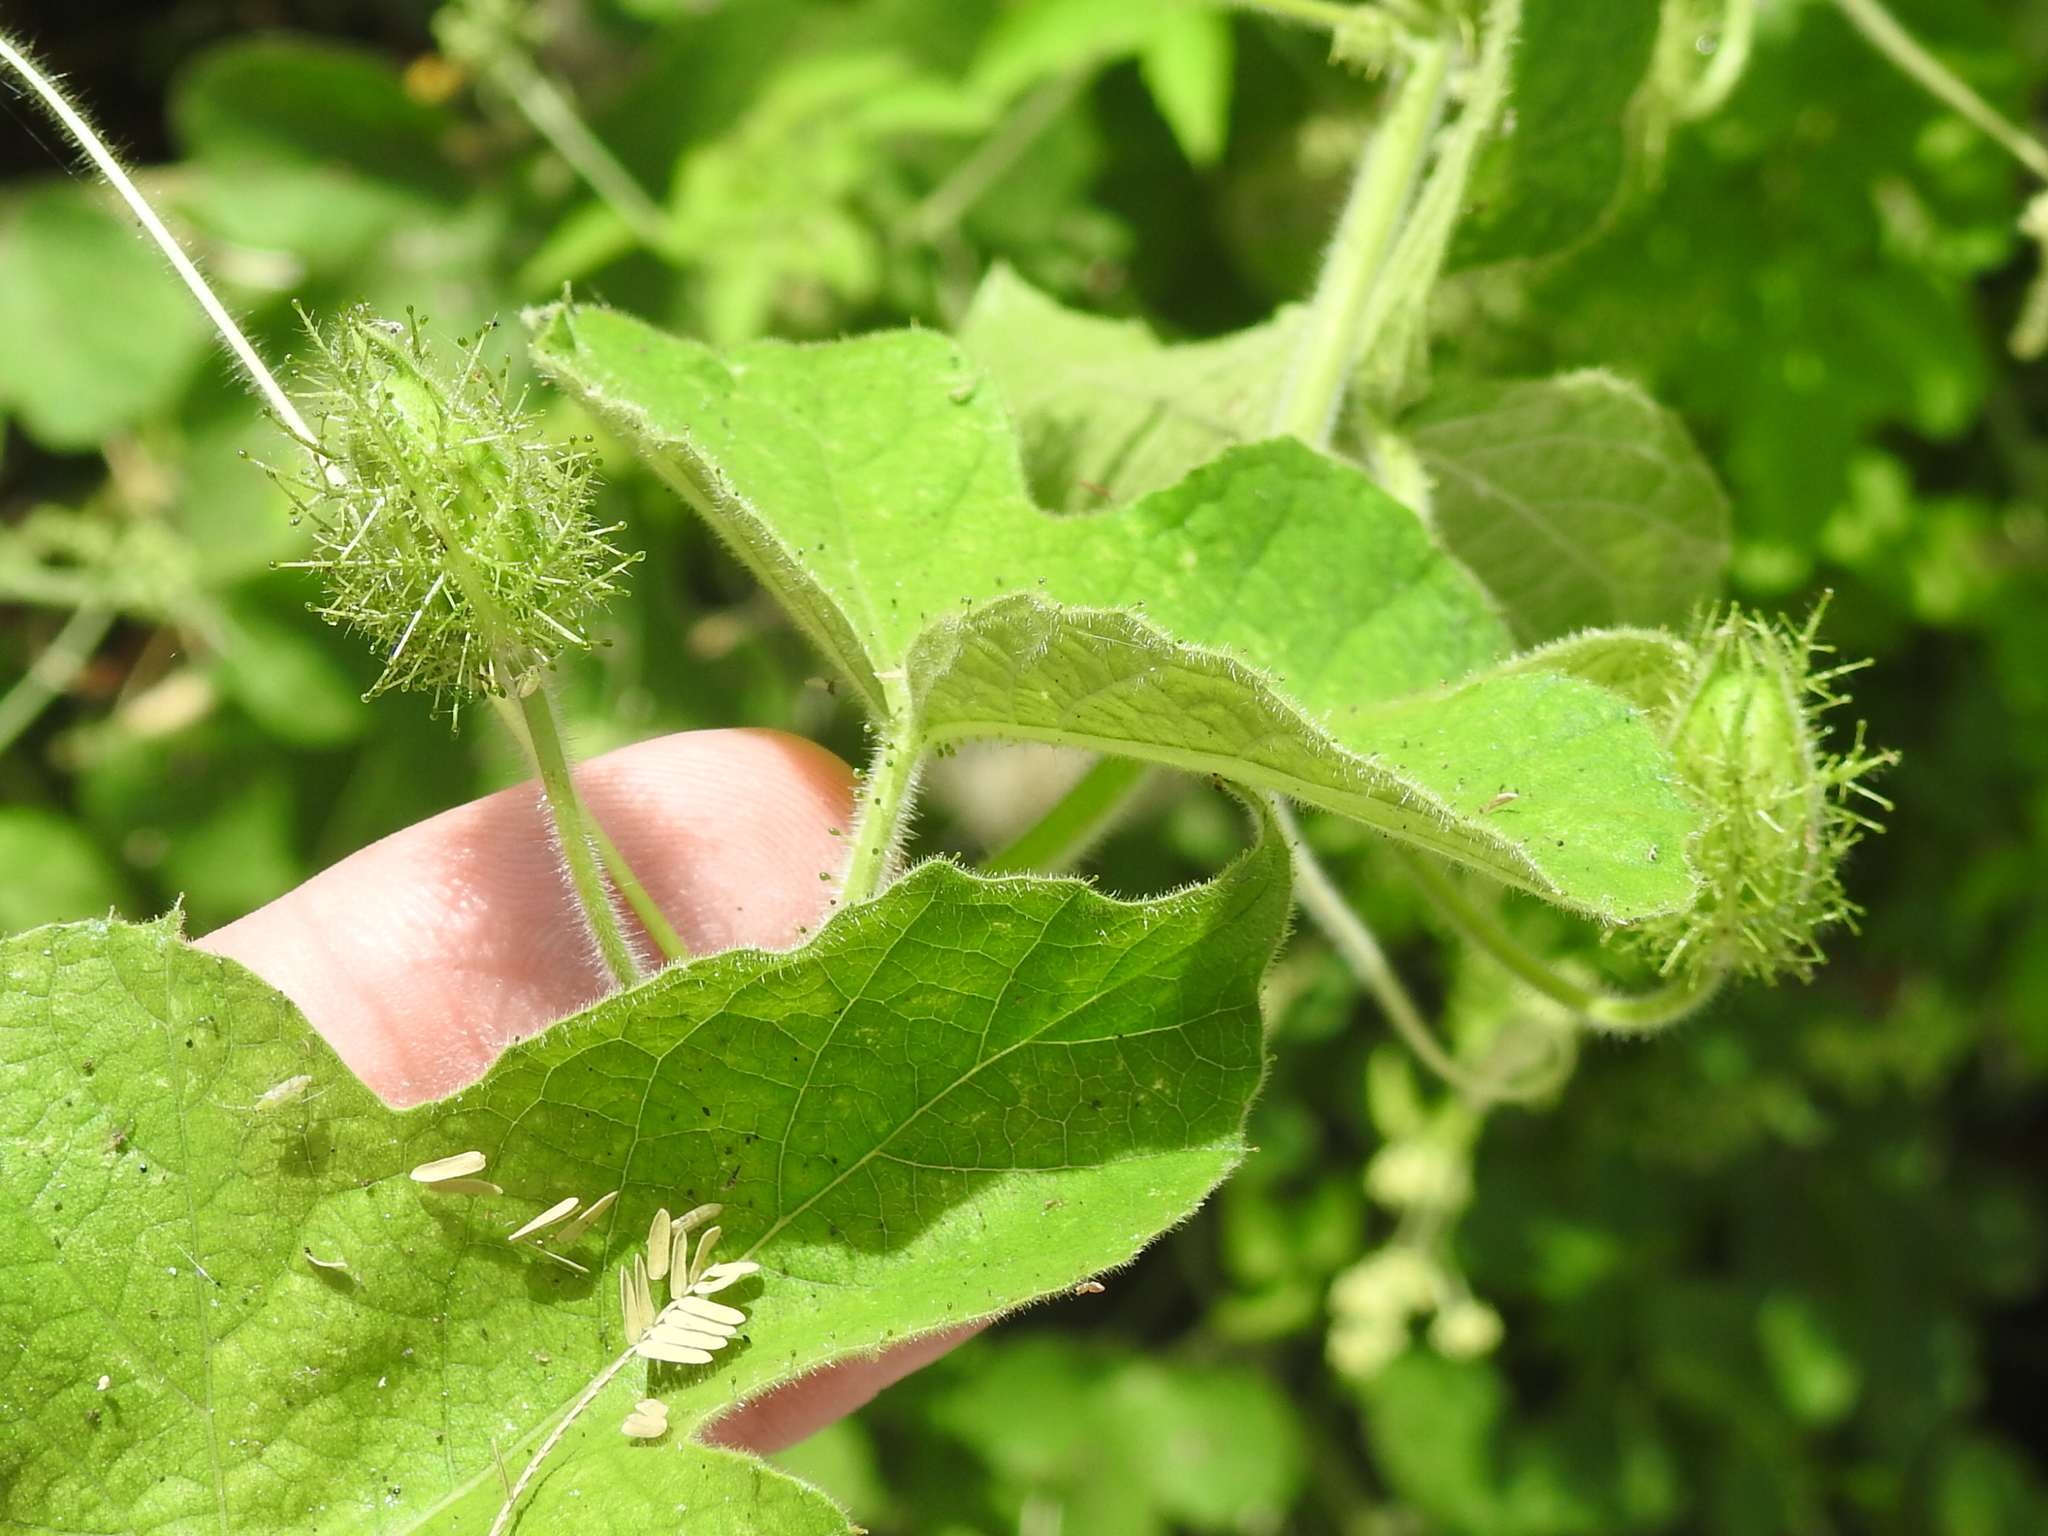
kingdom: Plantae
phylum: Tracheophyta
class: Magnoliopsida
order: Malpighiales
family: Passifloraceae
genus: Passiflora
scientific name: Passiflora foetida
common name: Fetid passionflower
